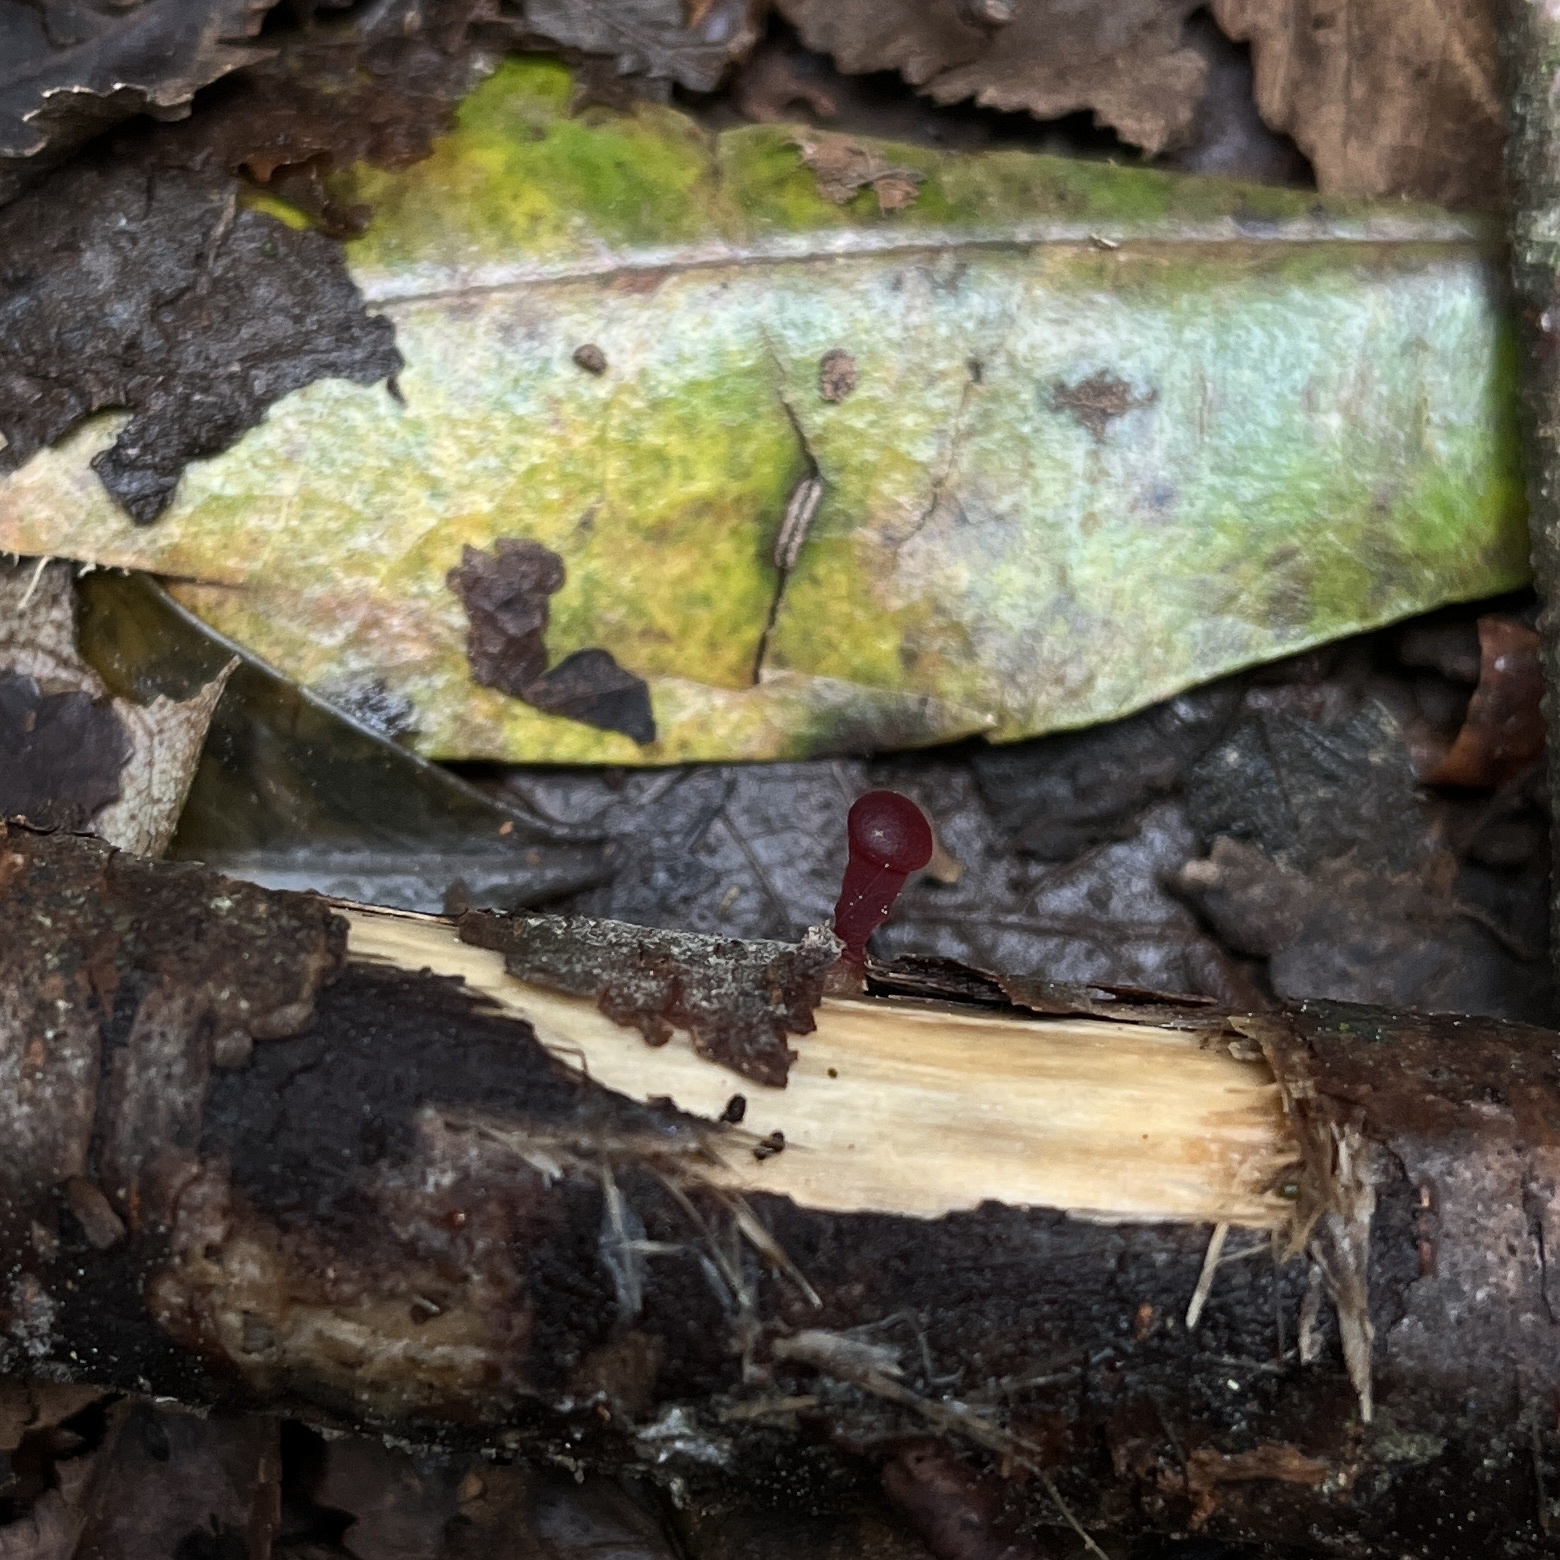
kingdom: Fungi
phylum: Basidiomycota
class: Dacrymycetes
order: Dacrymycetales
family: Dacrymycetaceae
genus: Guepiniopsis
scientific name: Guepiniopsis alpina
